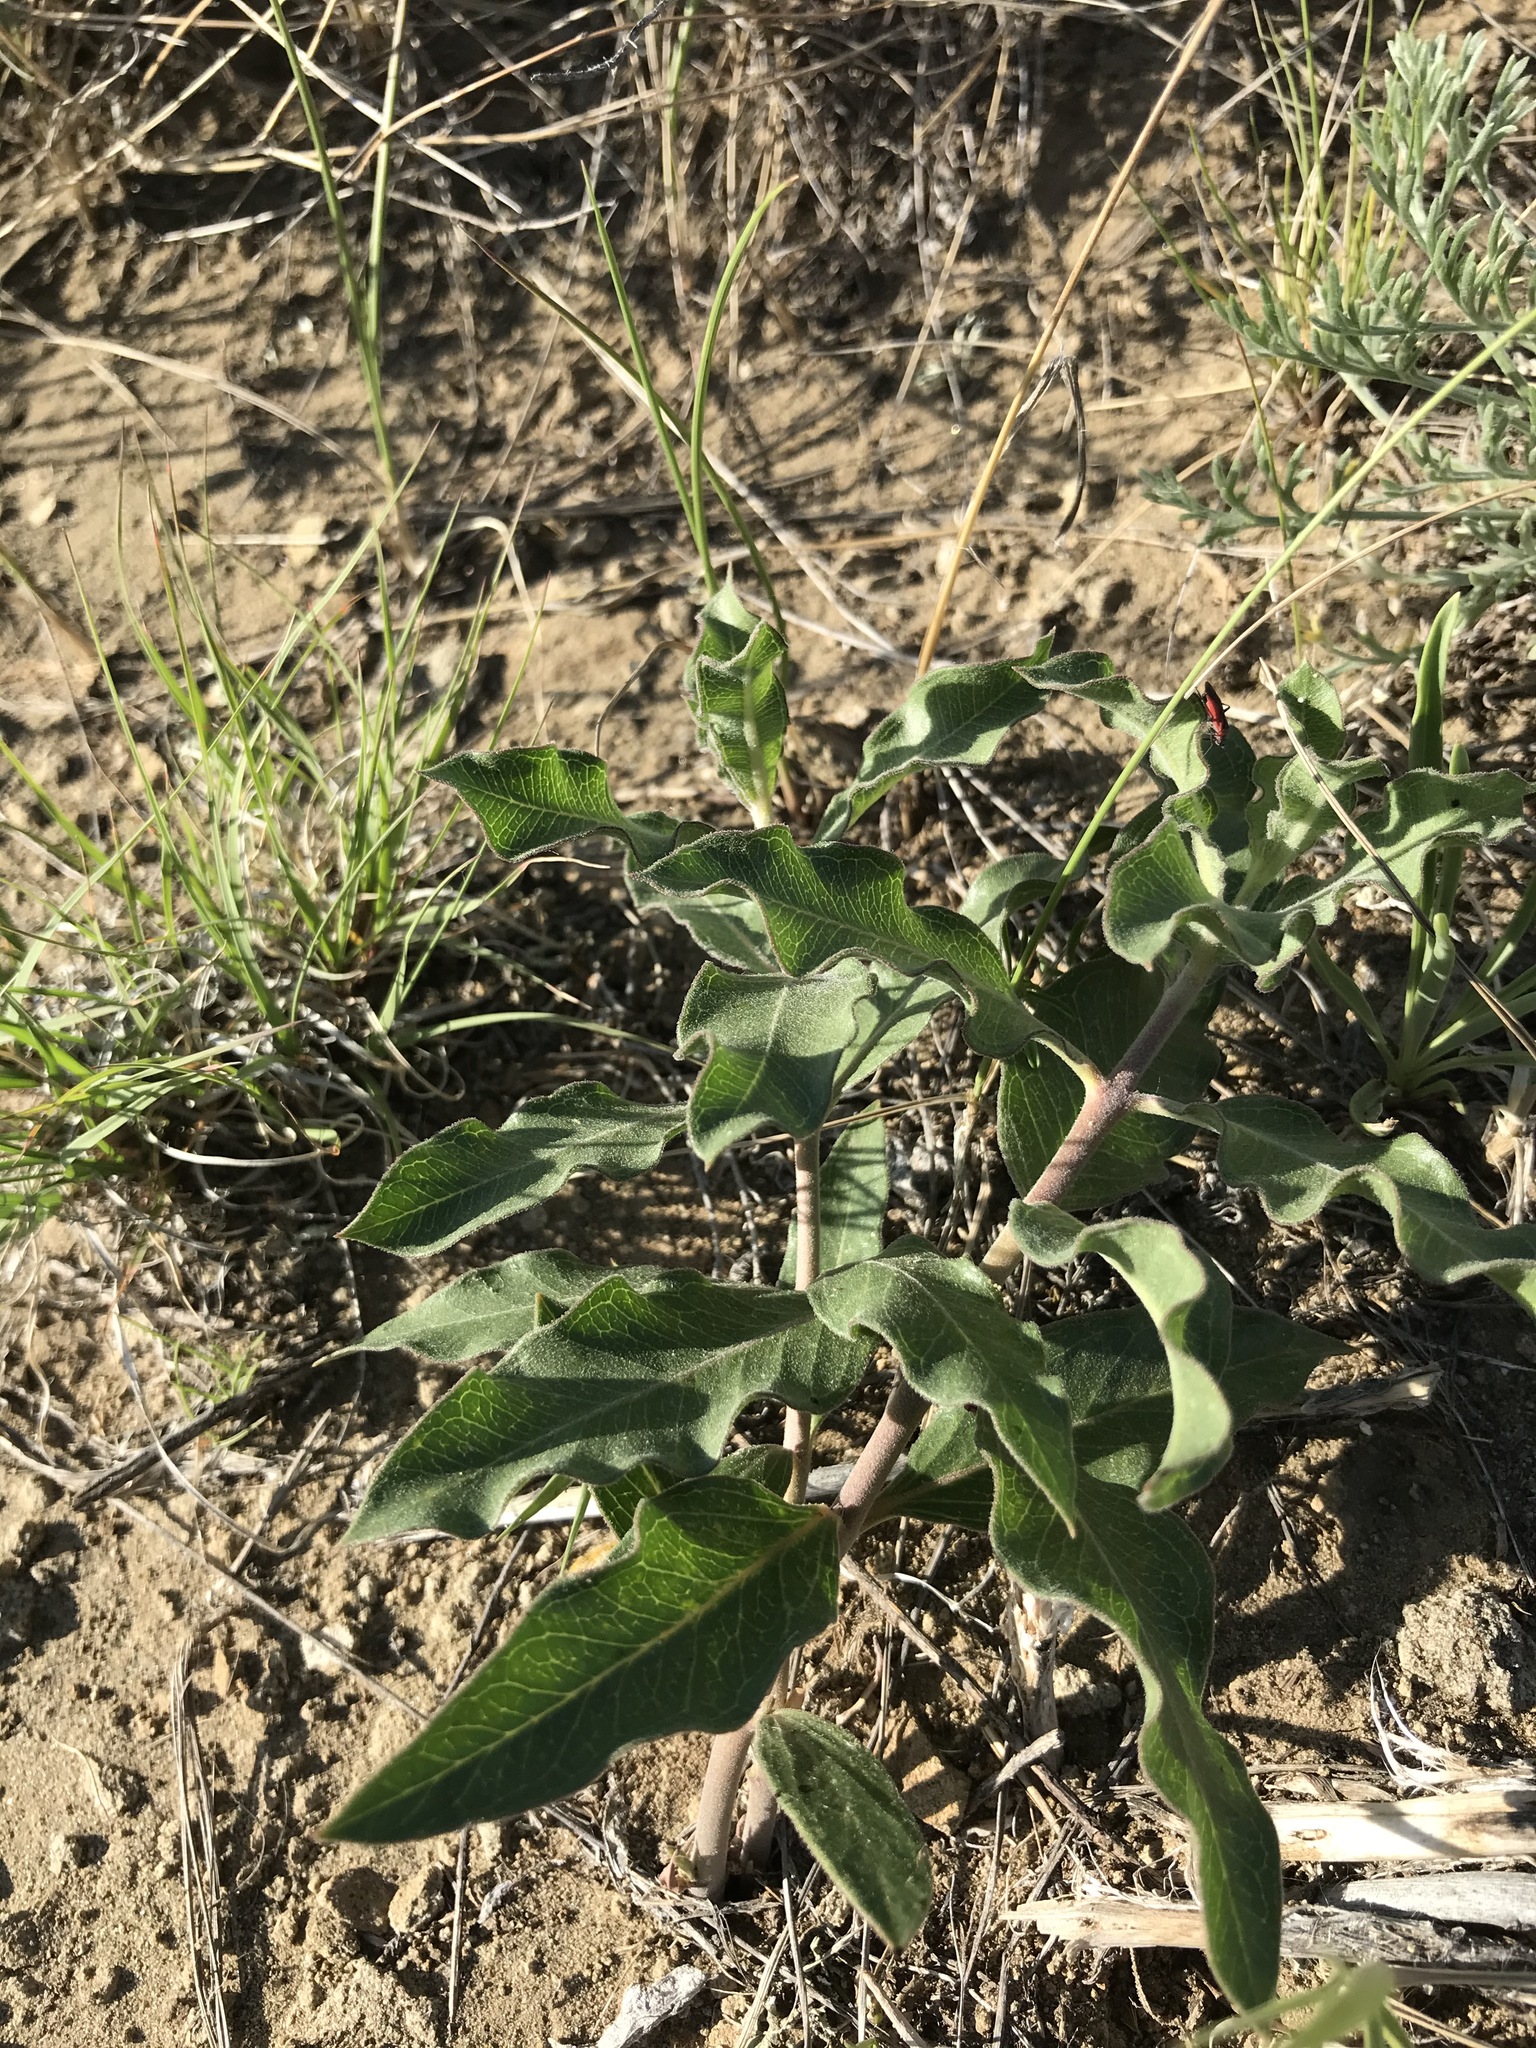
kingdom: Plantae
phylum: Tracheophyta
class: Magnoliopsida
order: Gentianales
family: Apocynaceae
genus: Asclepias
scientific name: Asclepias viridiflora
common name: Green comet milkweed
